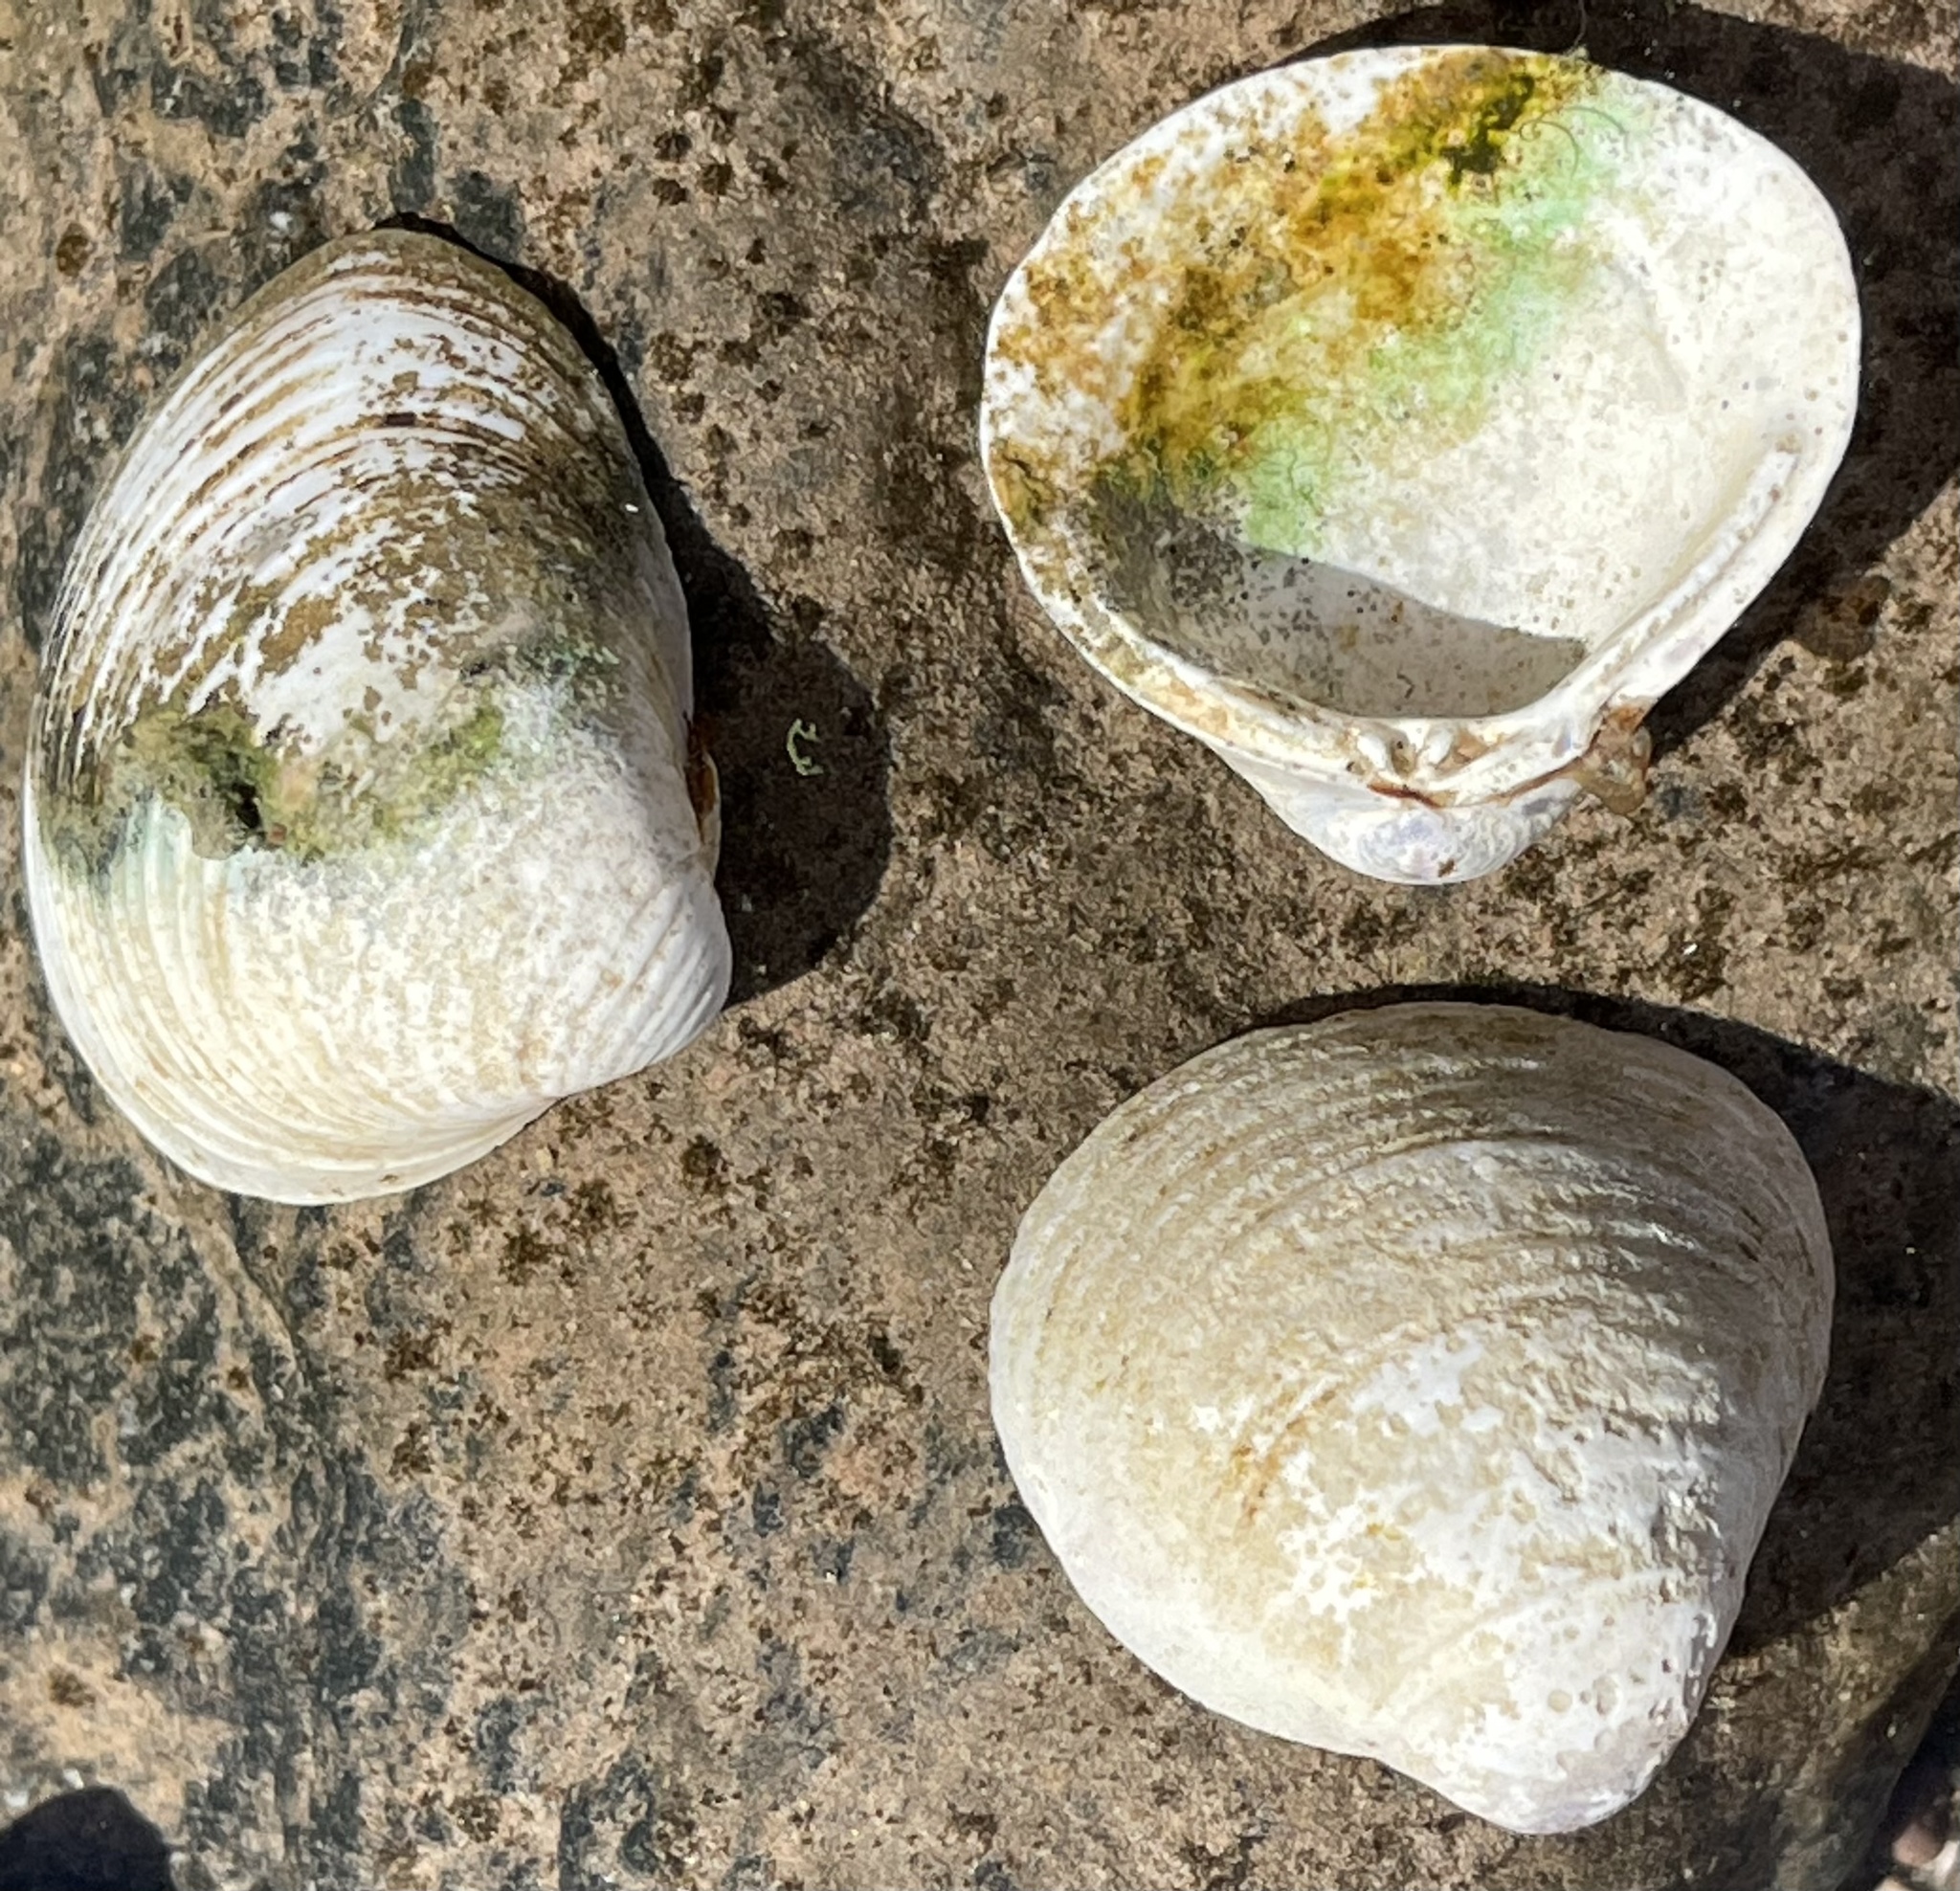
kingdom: Animalia
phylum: Mollusca
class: Bivalvia
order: Venerida
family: Cyrenidae
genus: Corbicula
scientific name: Corbicula fluminea
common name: Asian clam
